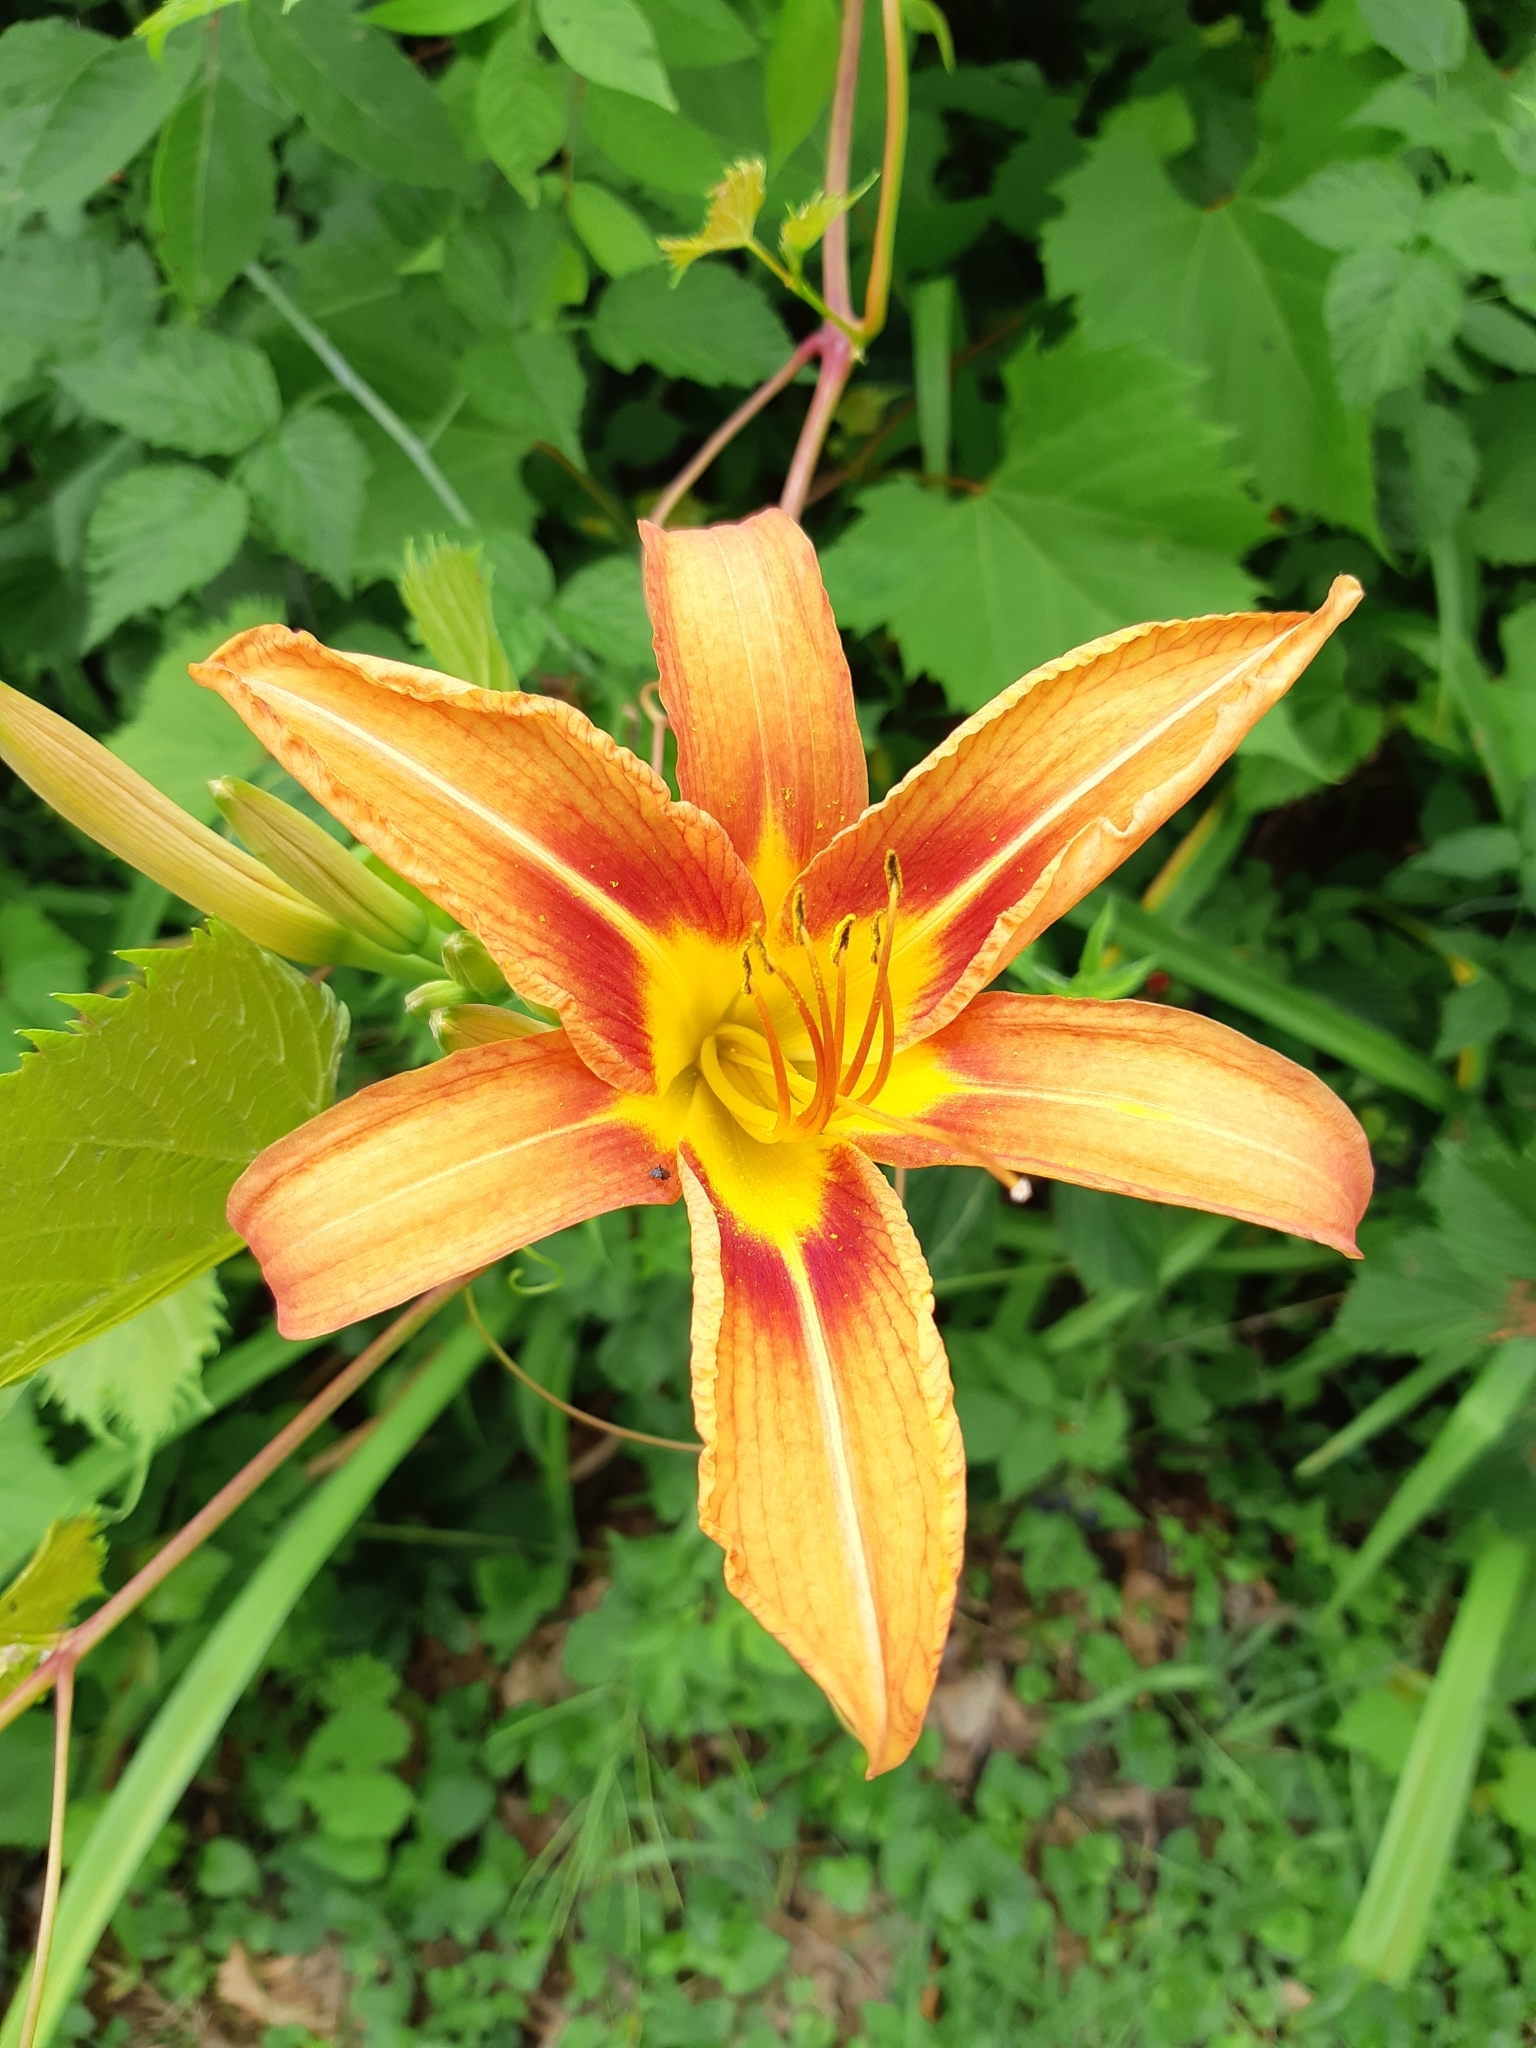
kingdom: Plantae
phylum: Tracheophyta
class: Liliopsida
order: Asparagales
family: Asphodelaceae
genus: Hemerocallis
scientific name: Hemerocallis fulva
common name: Orange day-lily
